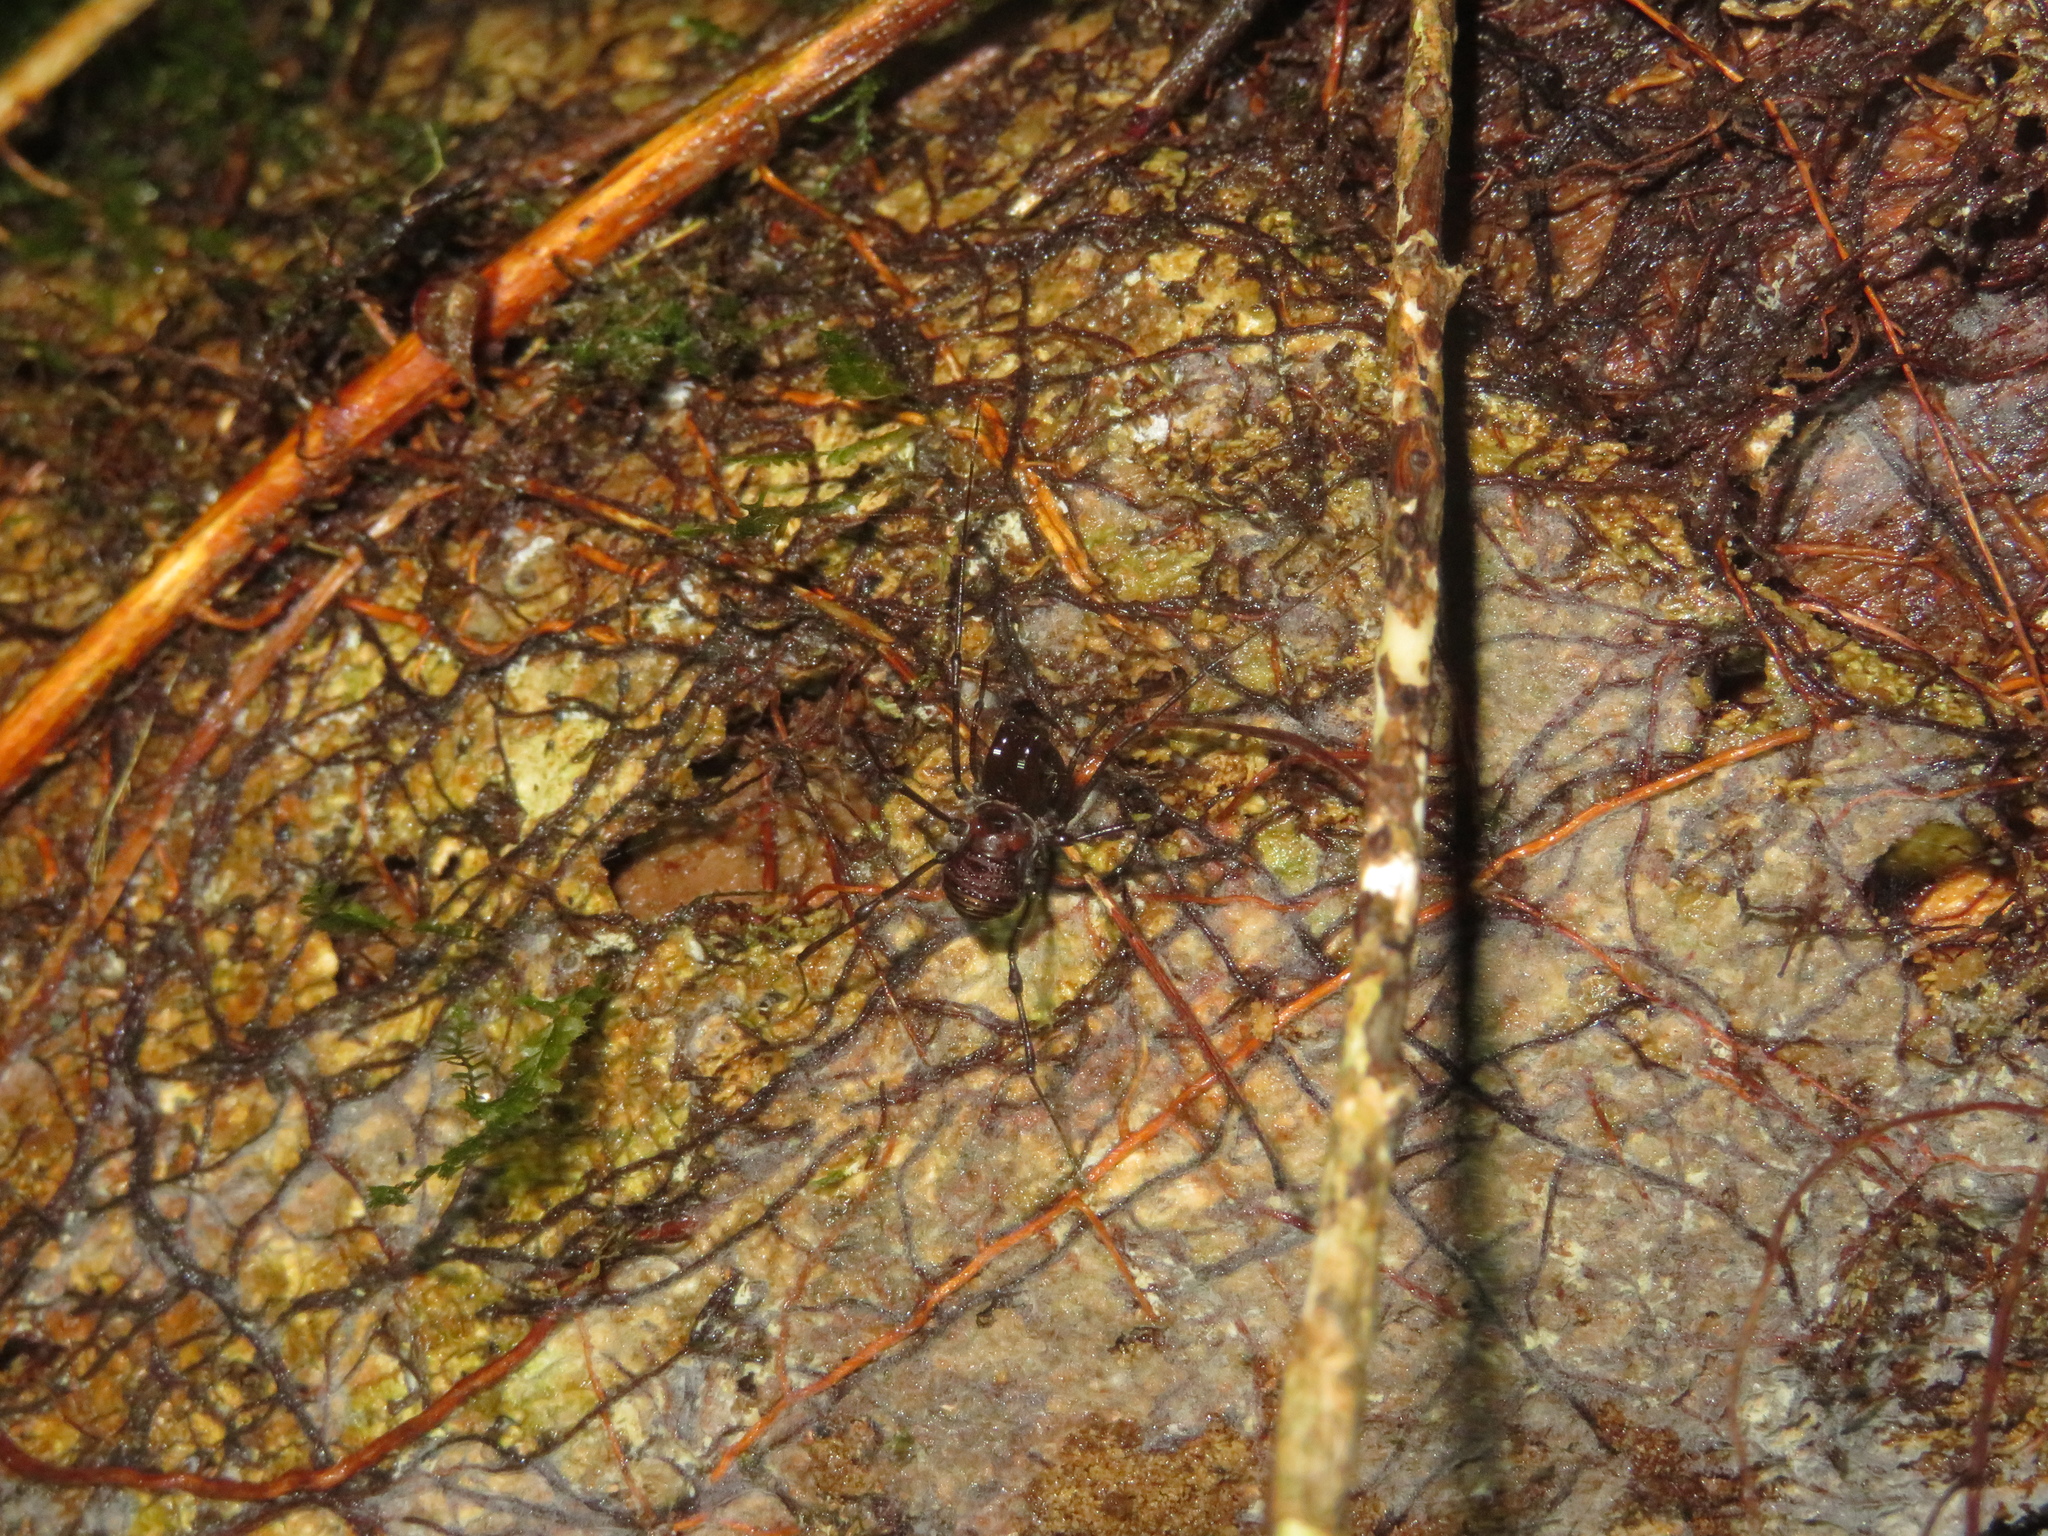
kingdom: Animalia
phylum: Arthropoda
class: Arachnida
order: Opiliones
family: Triaenonychidae
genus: Hendea
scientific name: Hendea myersi
